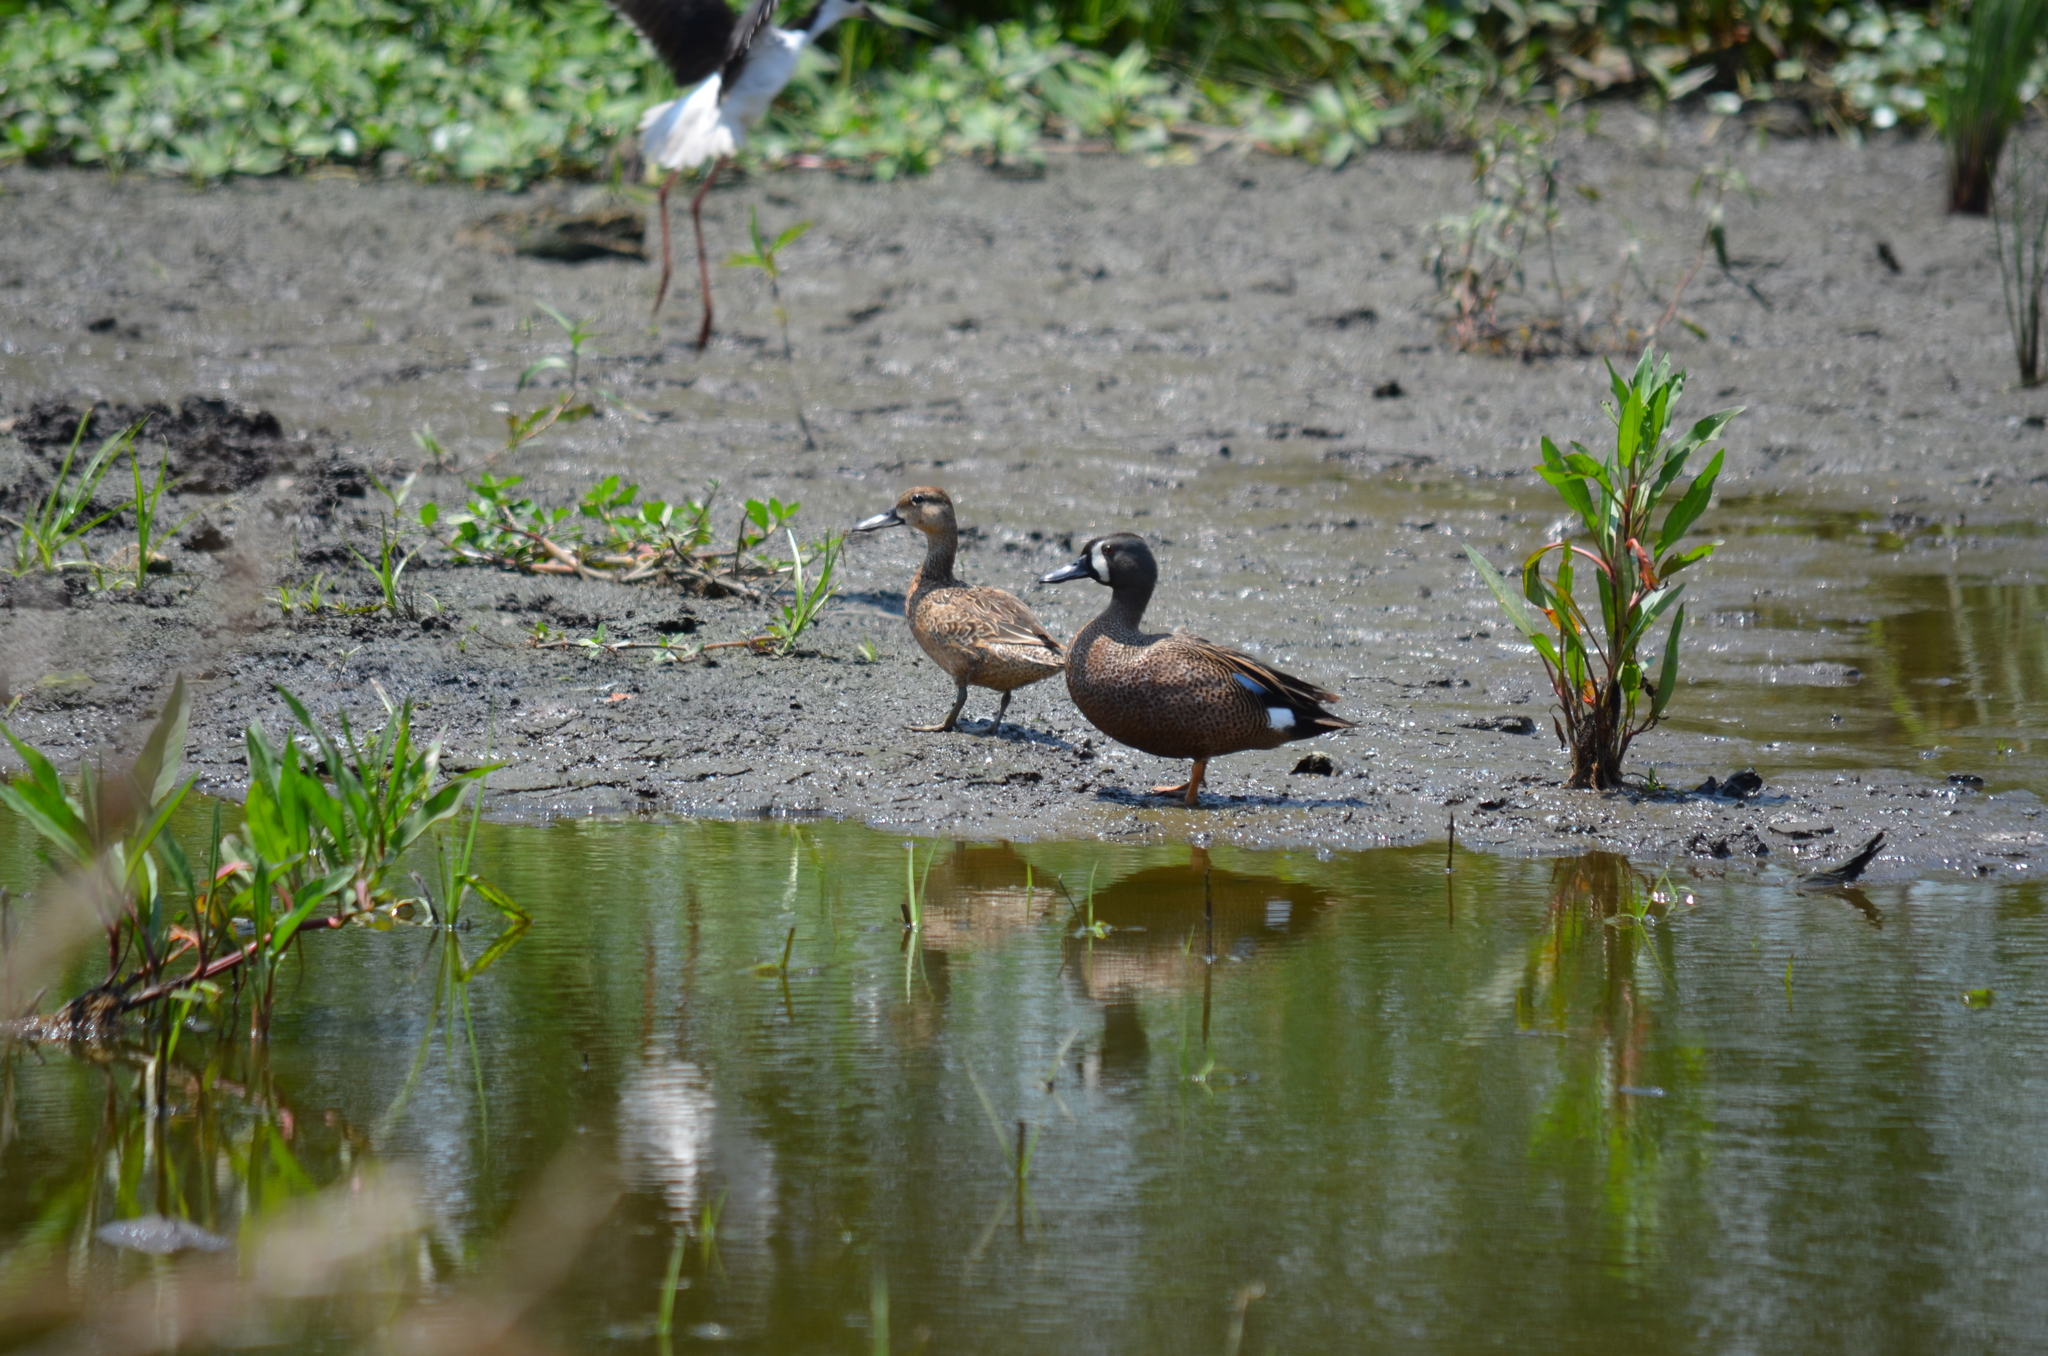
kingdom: Animalia
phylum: Chordata
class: Aves
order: Anseriformes
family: Anatidae
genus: Spatula
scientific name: Spatula discors
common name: Blue-winged teal
